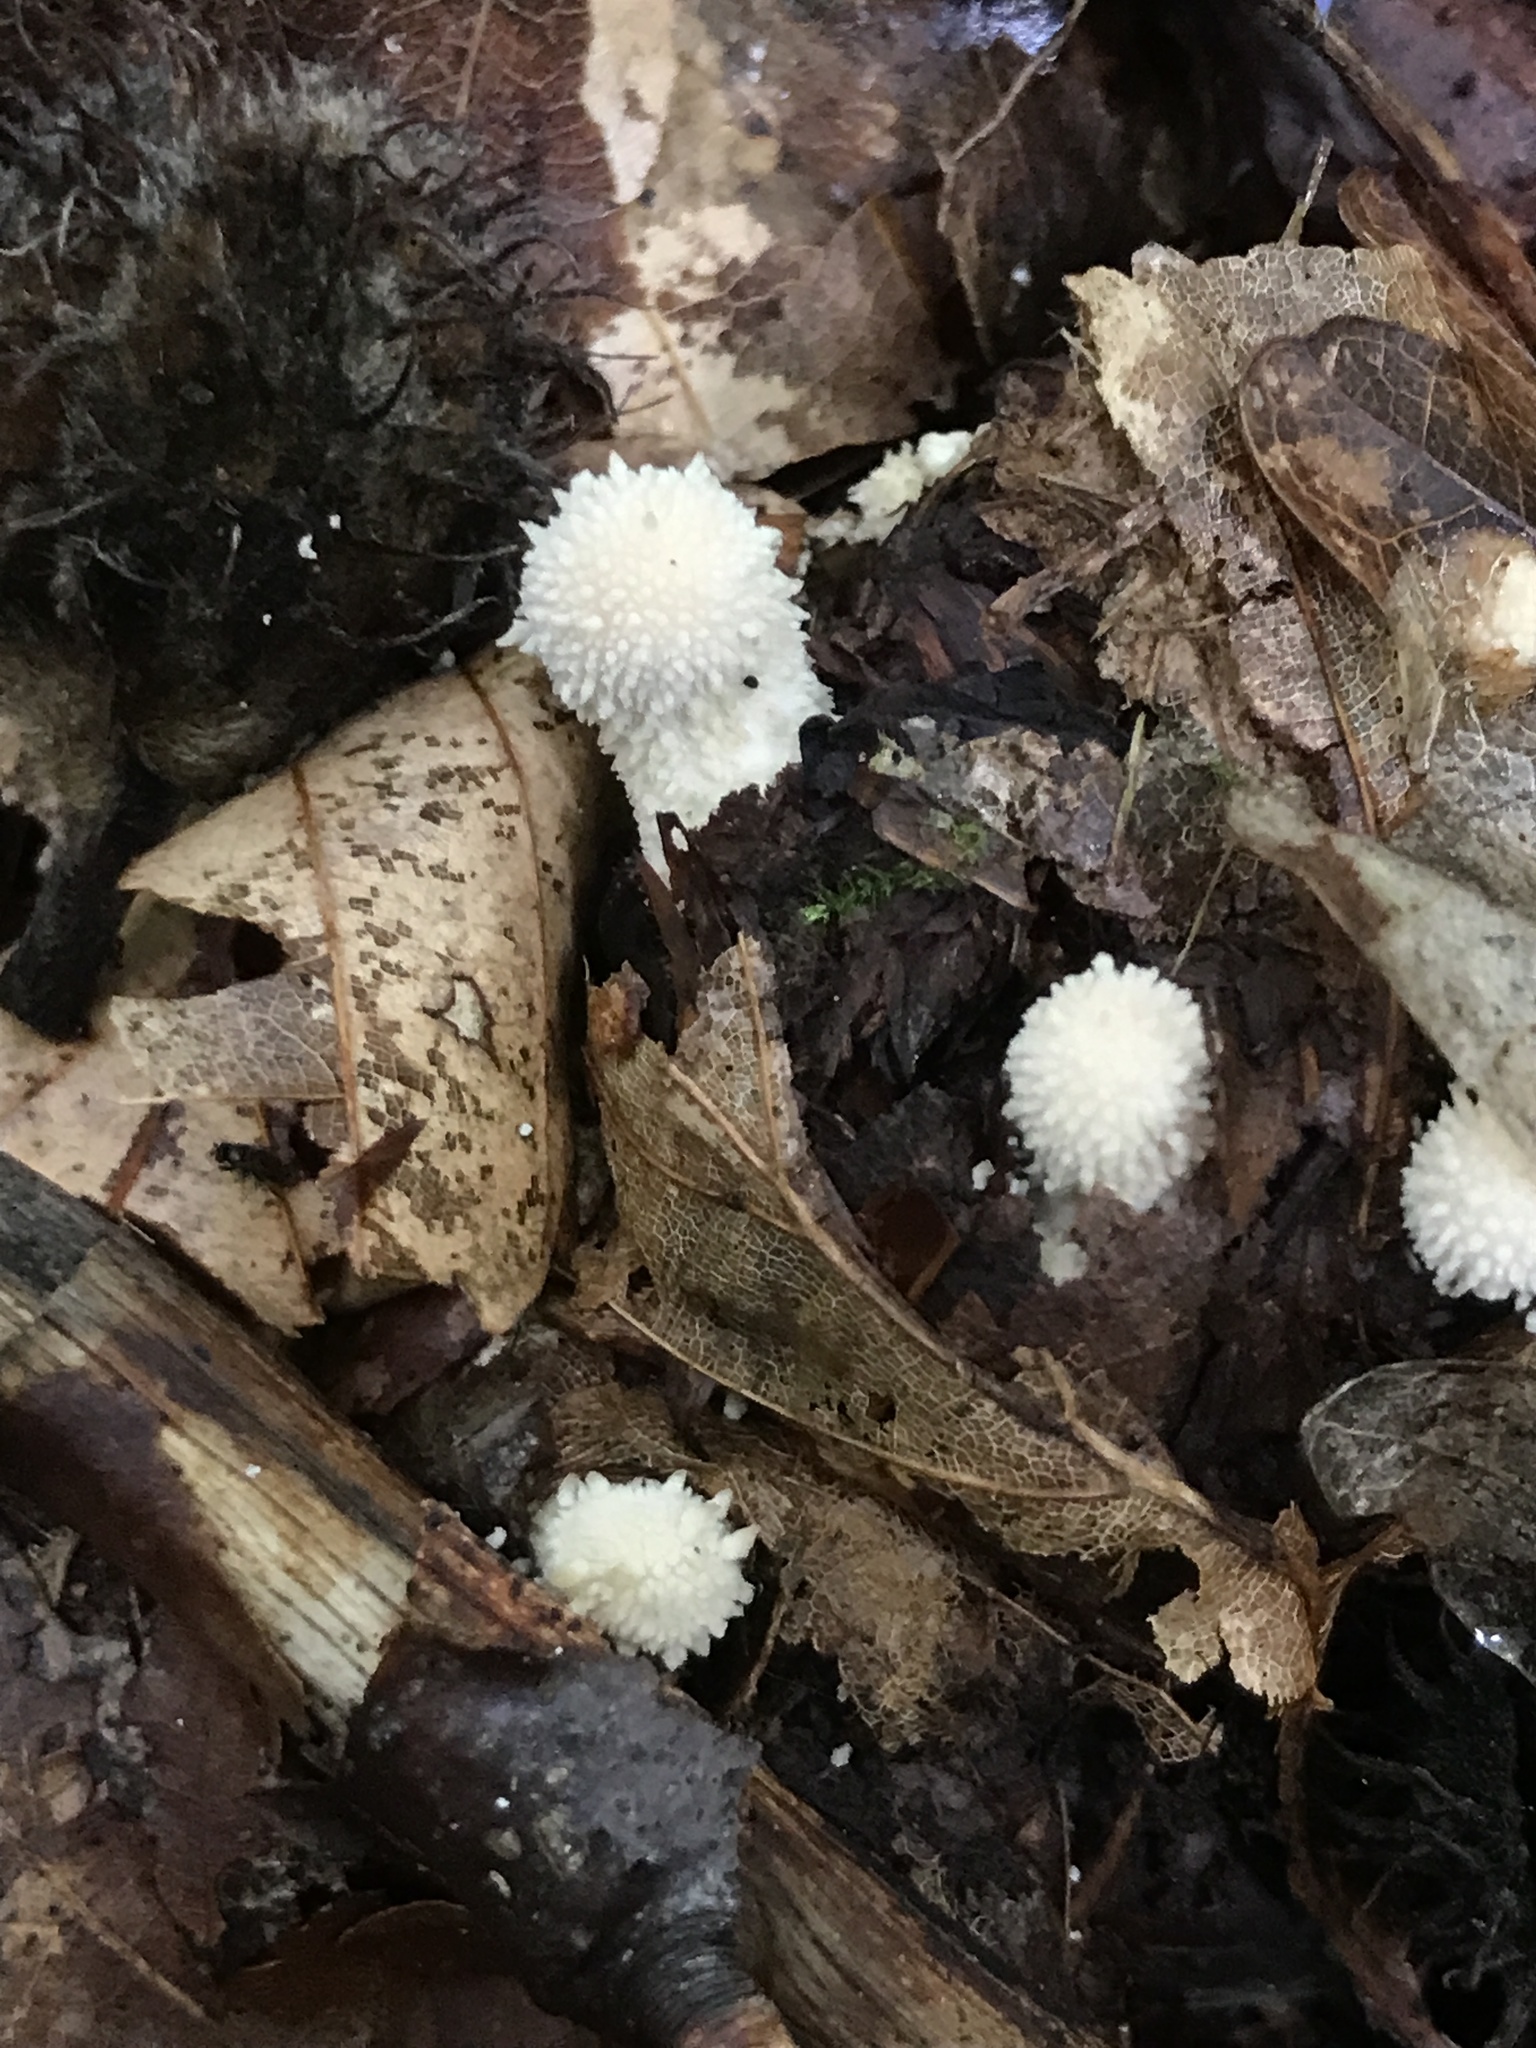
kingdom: Fungi
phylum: Basidiomycota
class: Agaricomycetes
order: Agaricales
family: Lycoperdaceae
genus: Lycoperdon
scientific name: Lycoperdon perlatum
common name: Common puffball
